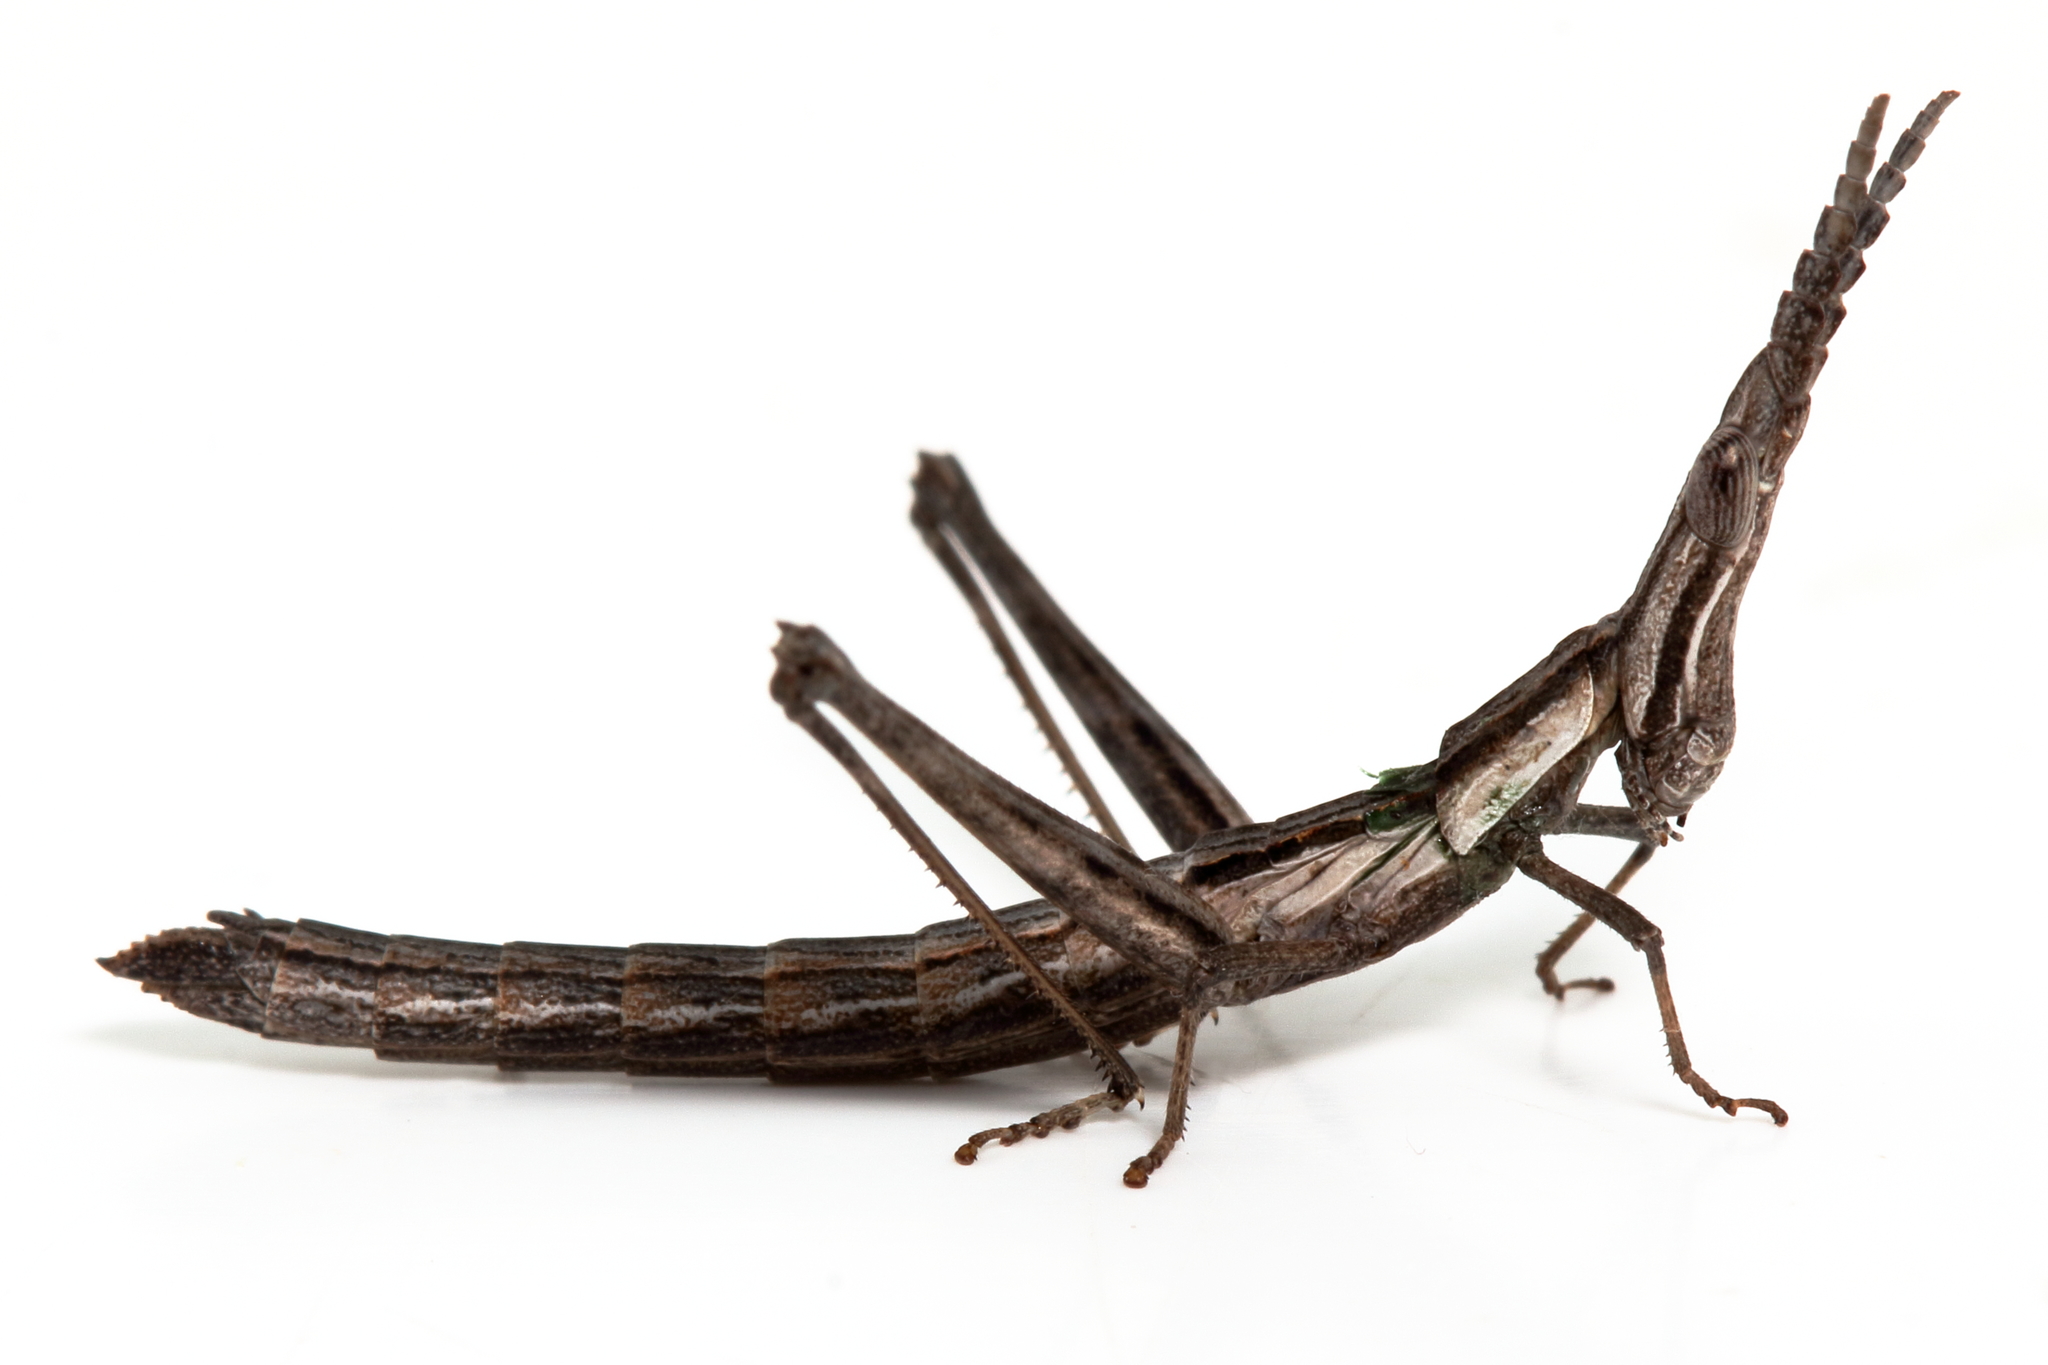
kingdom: Animalia
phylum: Arthropoda
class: Insecta
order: Orthoptera
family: Morabidae
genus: Vandiemenella
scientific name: Vandiemenella viatica
